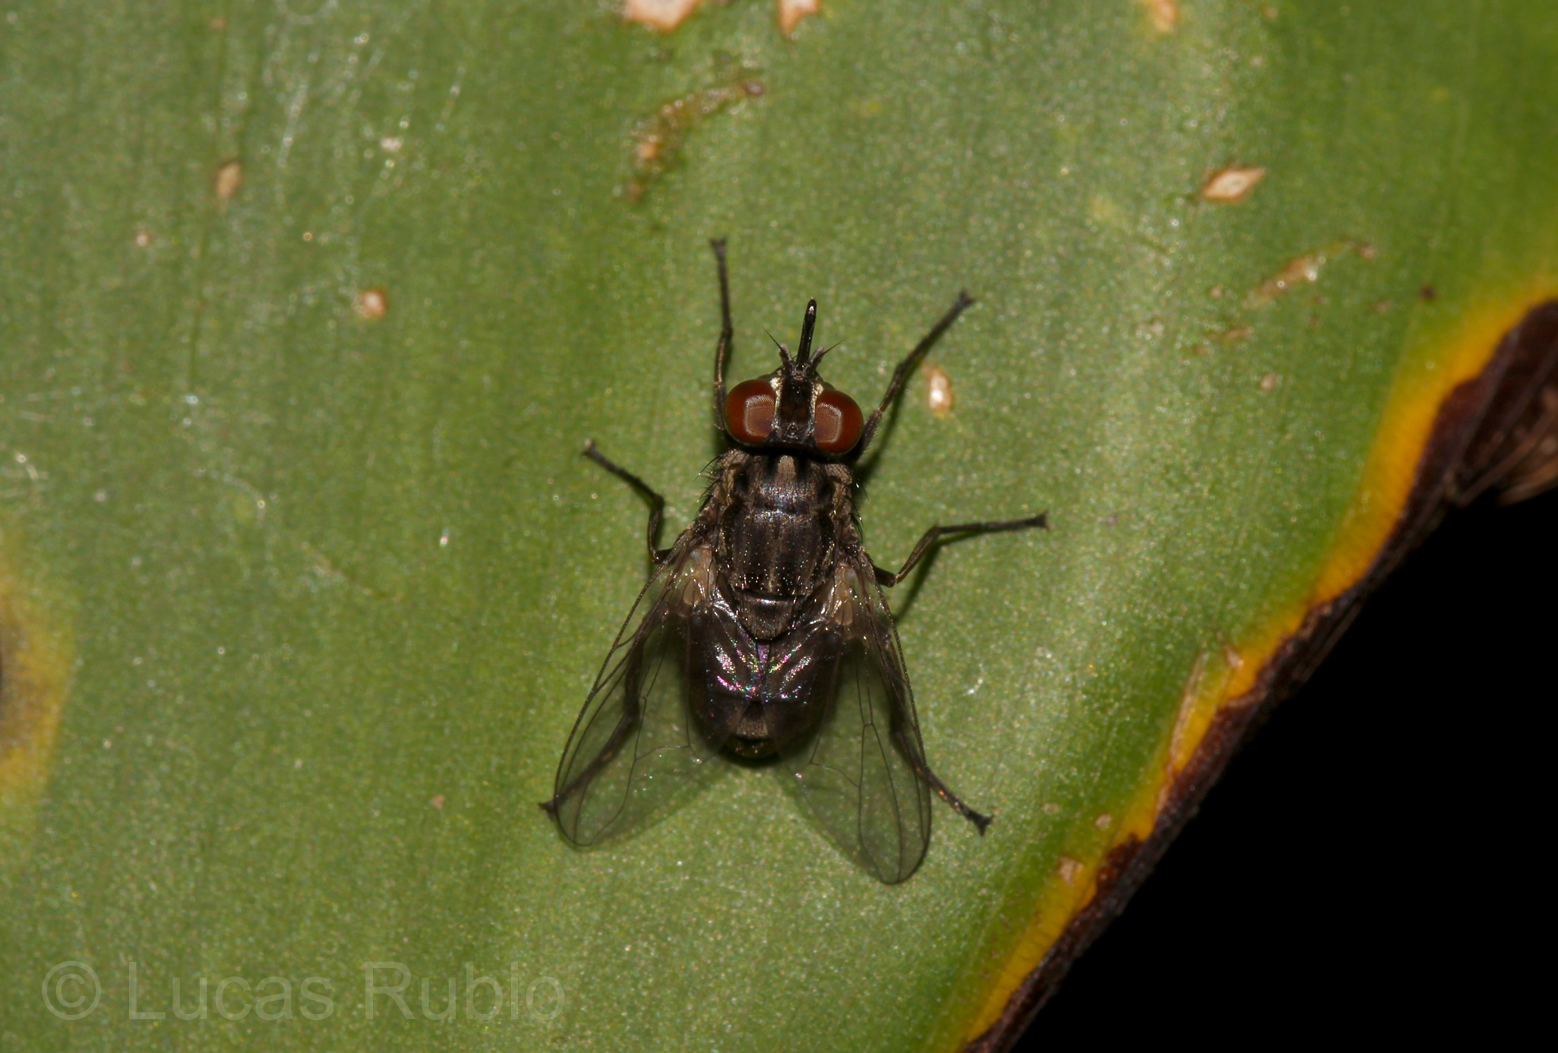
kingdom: Animalia
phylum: Arthropoda
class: Insecta
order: Diptera
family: Muscidae
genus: Stomoxys
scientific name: Stomoxys calcitrans
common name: Stable fly
